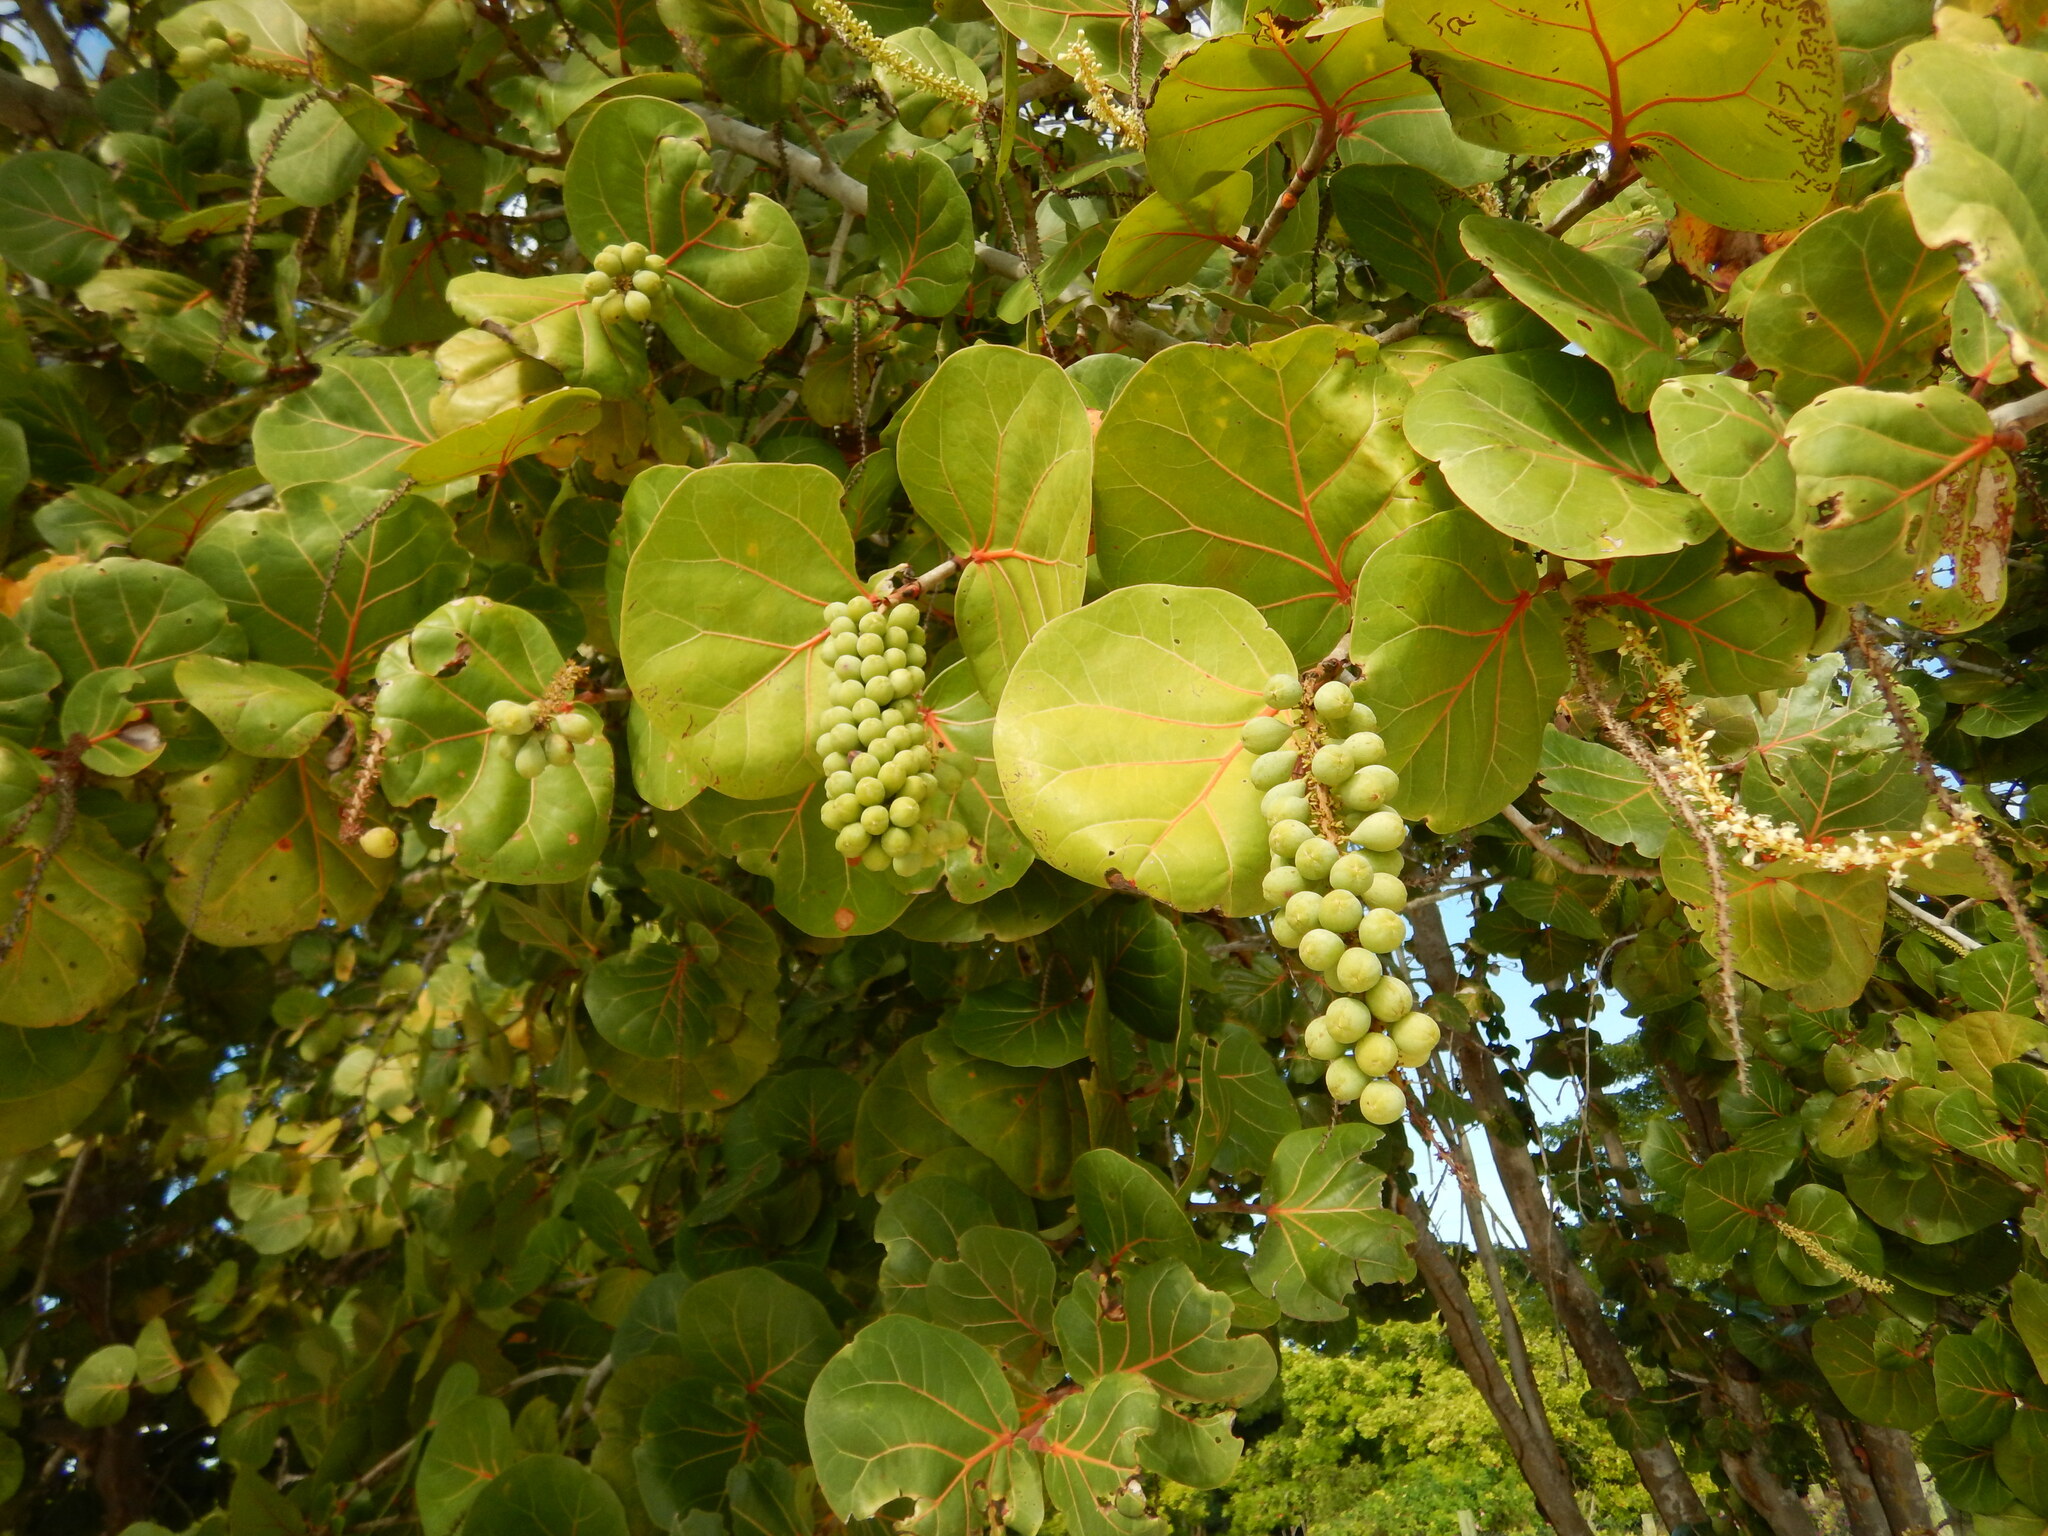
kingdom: Plantae
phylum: Tracheophyta
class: Magnoliopsida
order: Caryophyllales
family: Polygonaceae
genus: Coccoloba
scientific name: Coccoloba uvifera
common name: Seagrape
